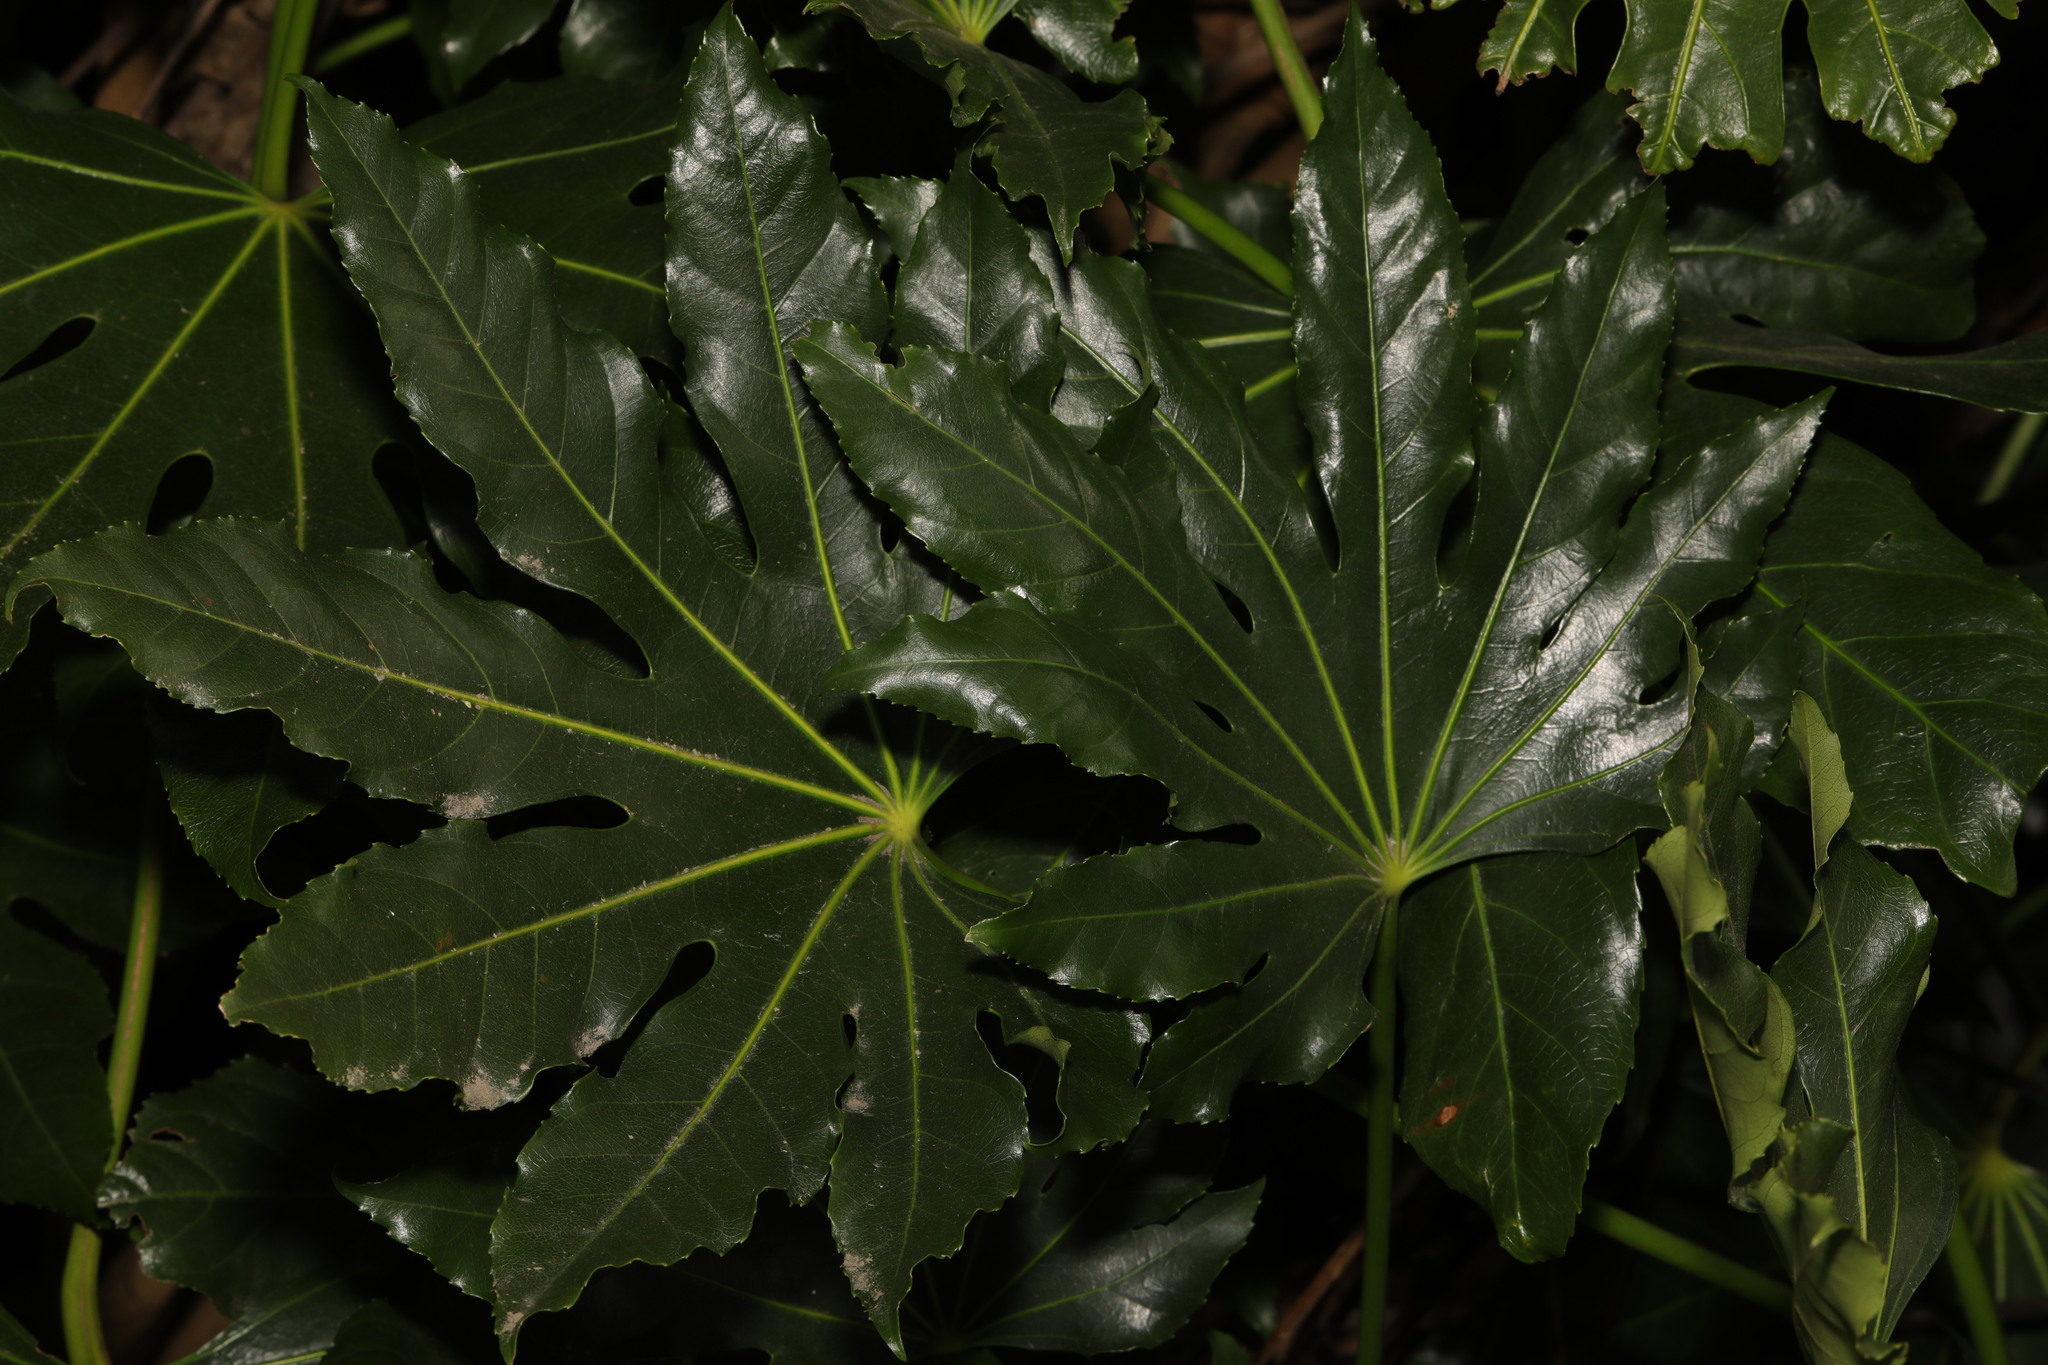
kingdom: Plantae
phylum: Tracheophyta
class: Magnoliopsida
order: Apiales
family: Araliaceae
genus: Fatsia
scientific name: Fatsia japonica
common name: Fatsia
